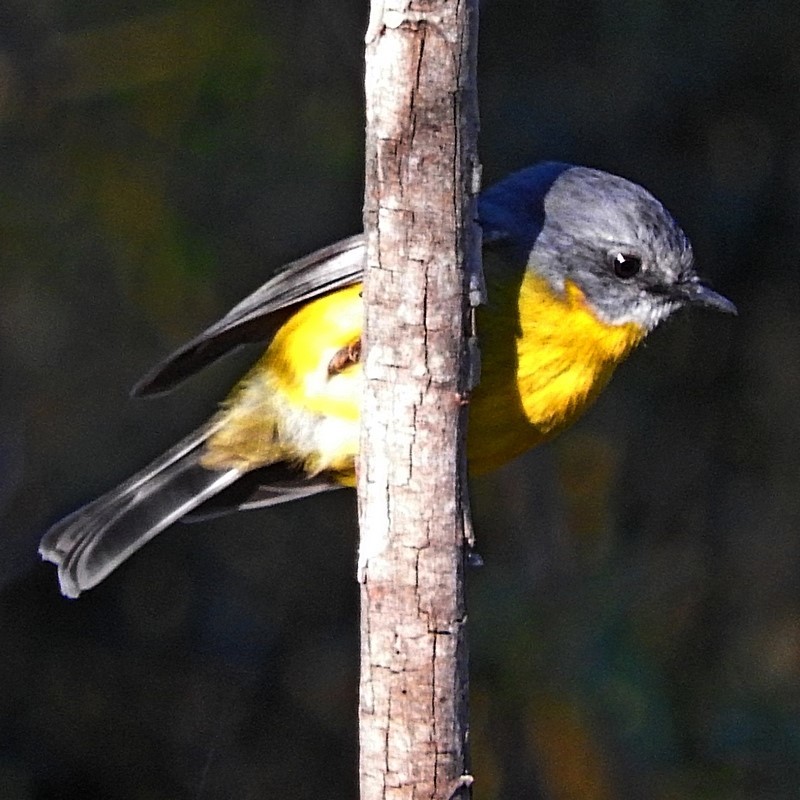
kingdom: Animalia
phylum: Chordata
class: Aves
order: Passeriformes
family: Petroicidae
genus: Eopsaltria
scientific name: Eopsaltria australis
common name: Eastern yellow robin
